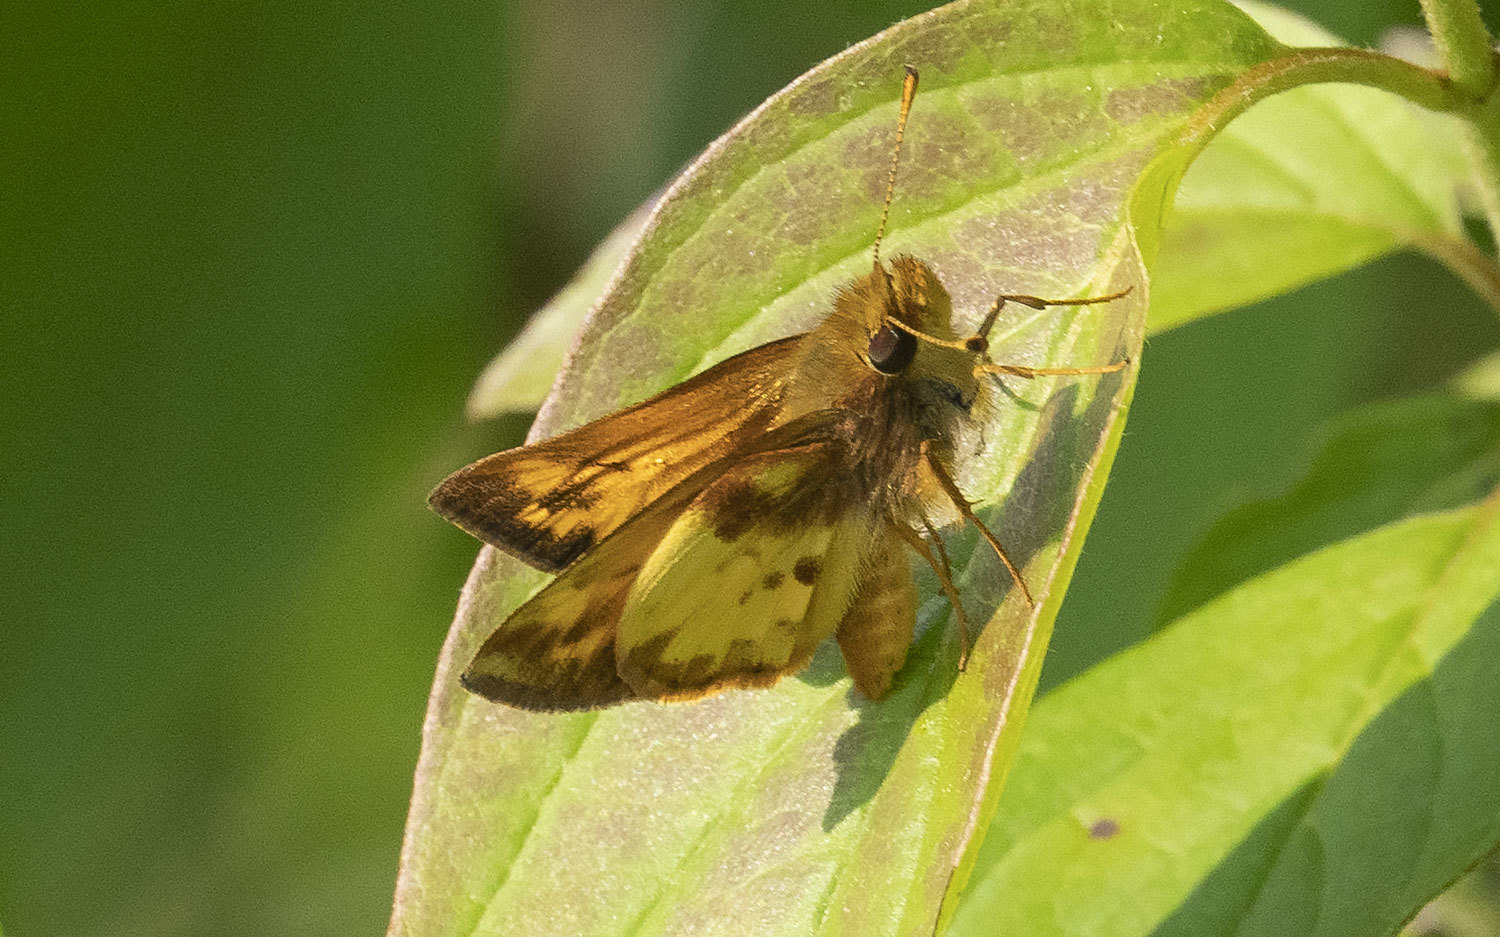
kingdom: Animalia
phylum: Arthropoda
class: Insecta
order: Lepidoptera
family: Hesperiidae
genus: Lon
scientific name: Lon zabulon
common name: Zabulon skipper
